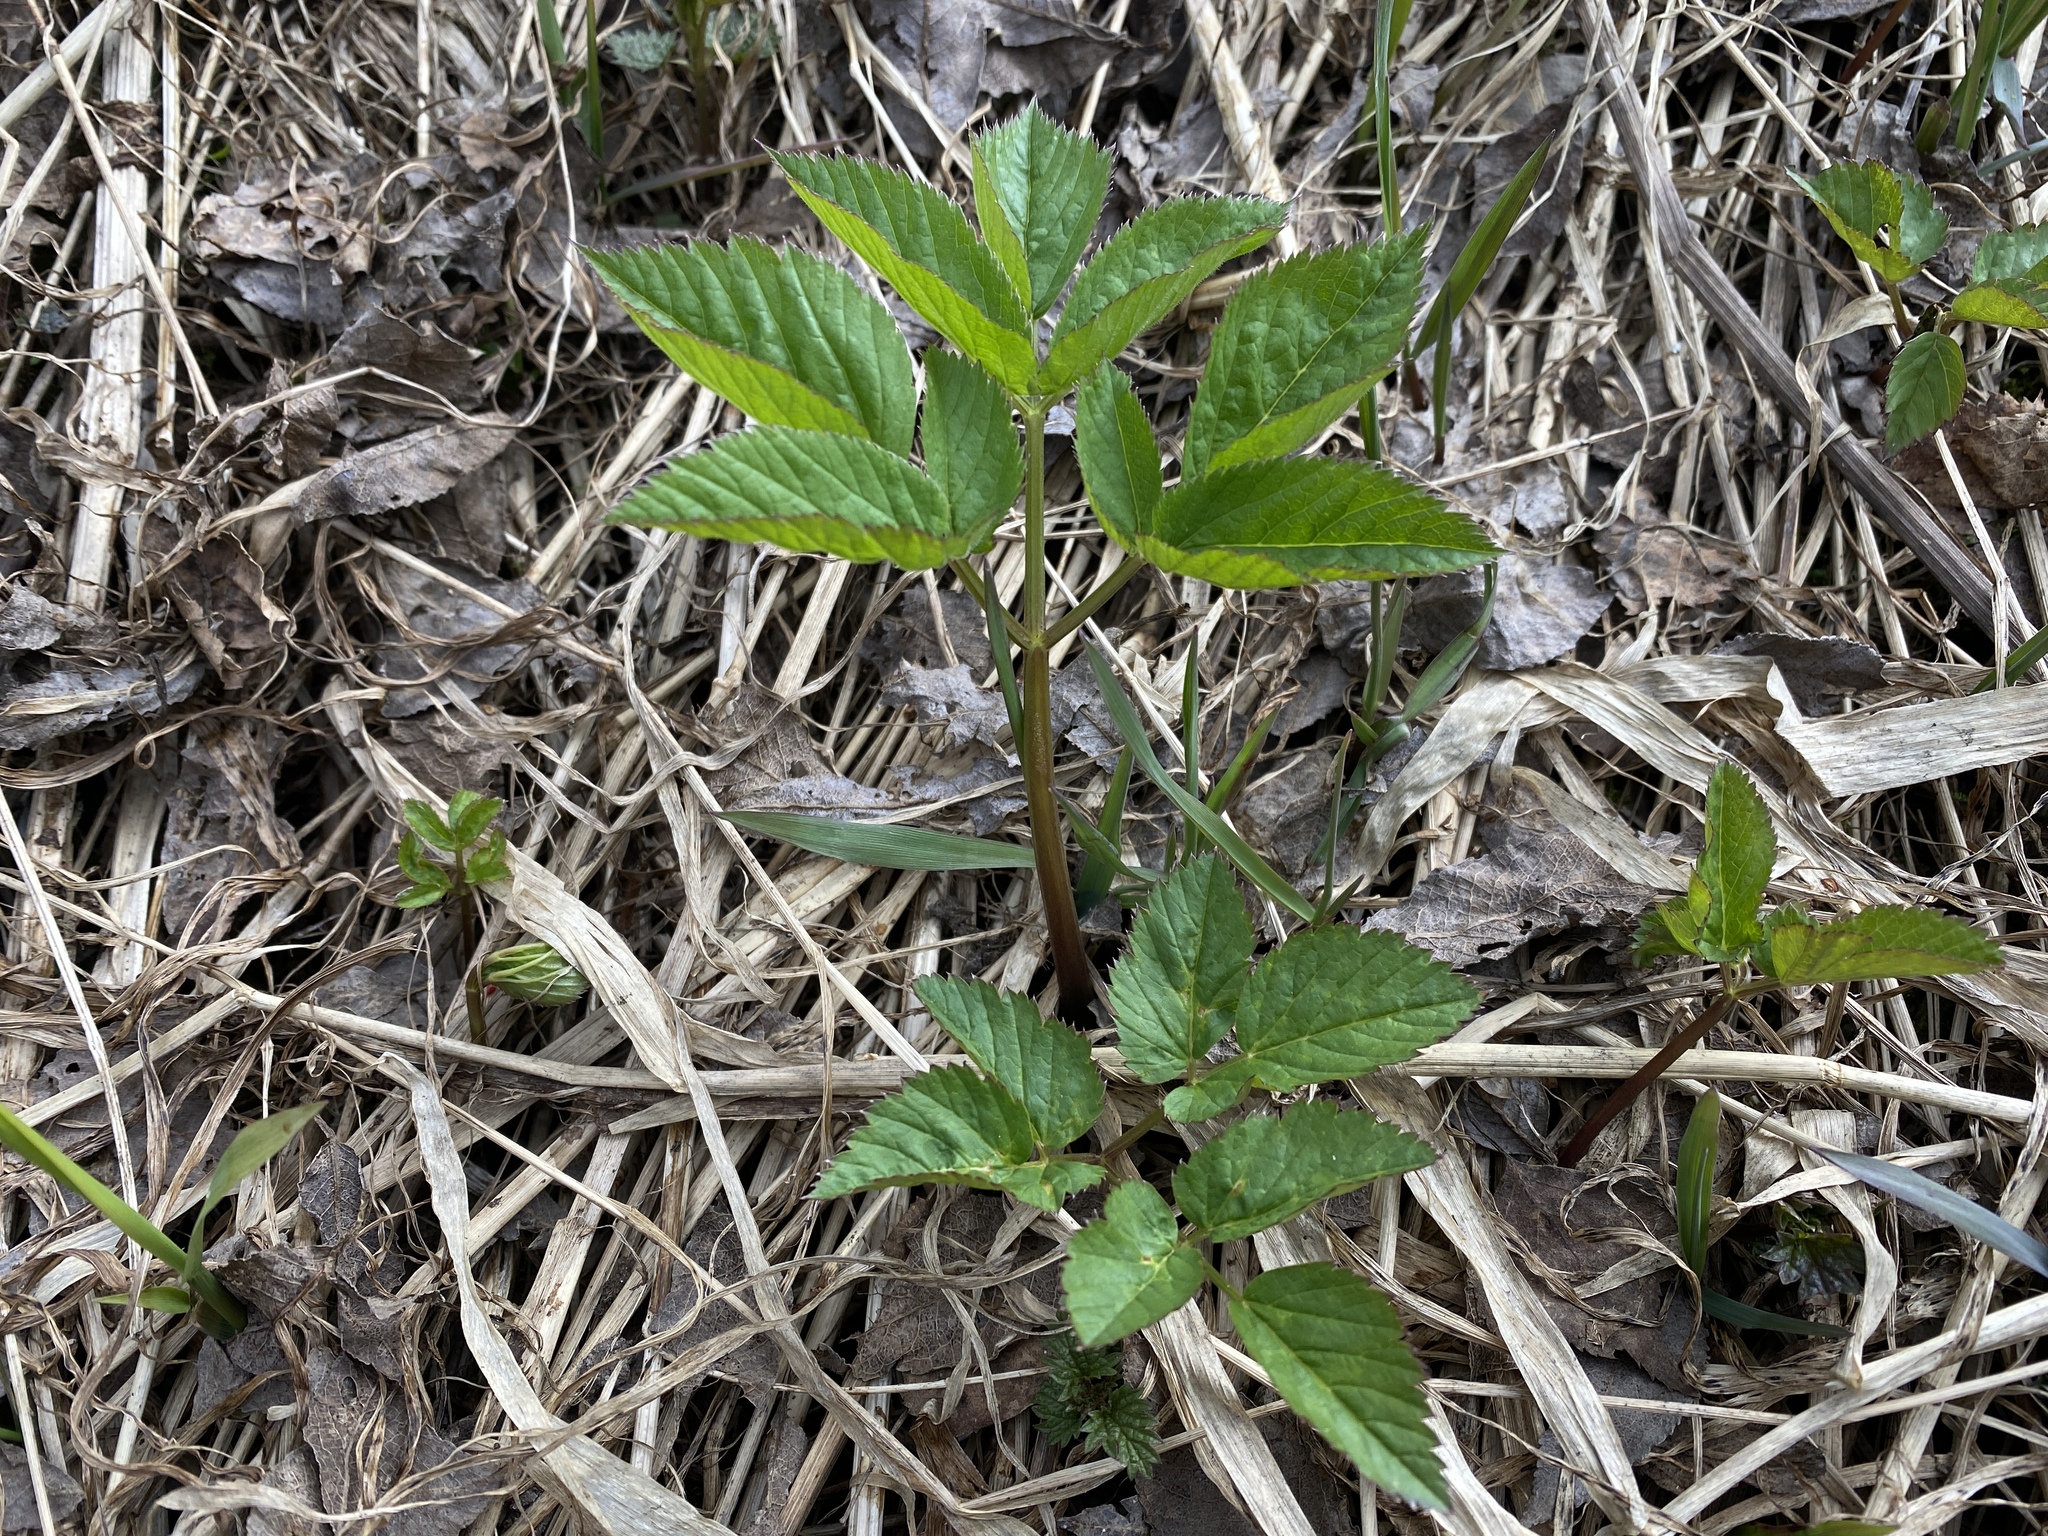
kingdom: Plantae
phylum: Tracheophyta
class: Magnoliopsida
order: Apiales
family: Apiaceae
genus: Aegopodium
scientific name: Aegopodium podagraria
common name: Ground-elder
